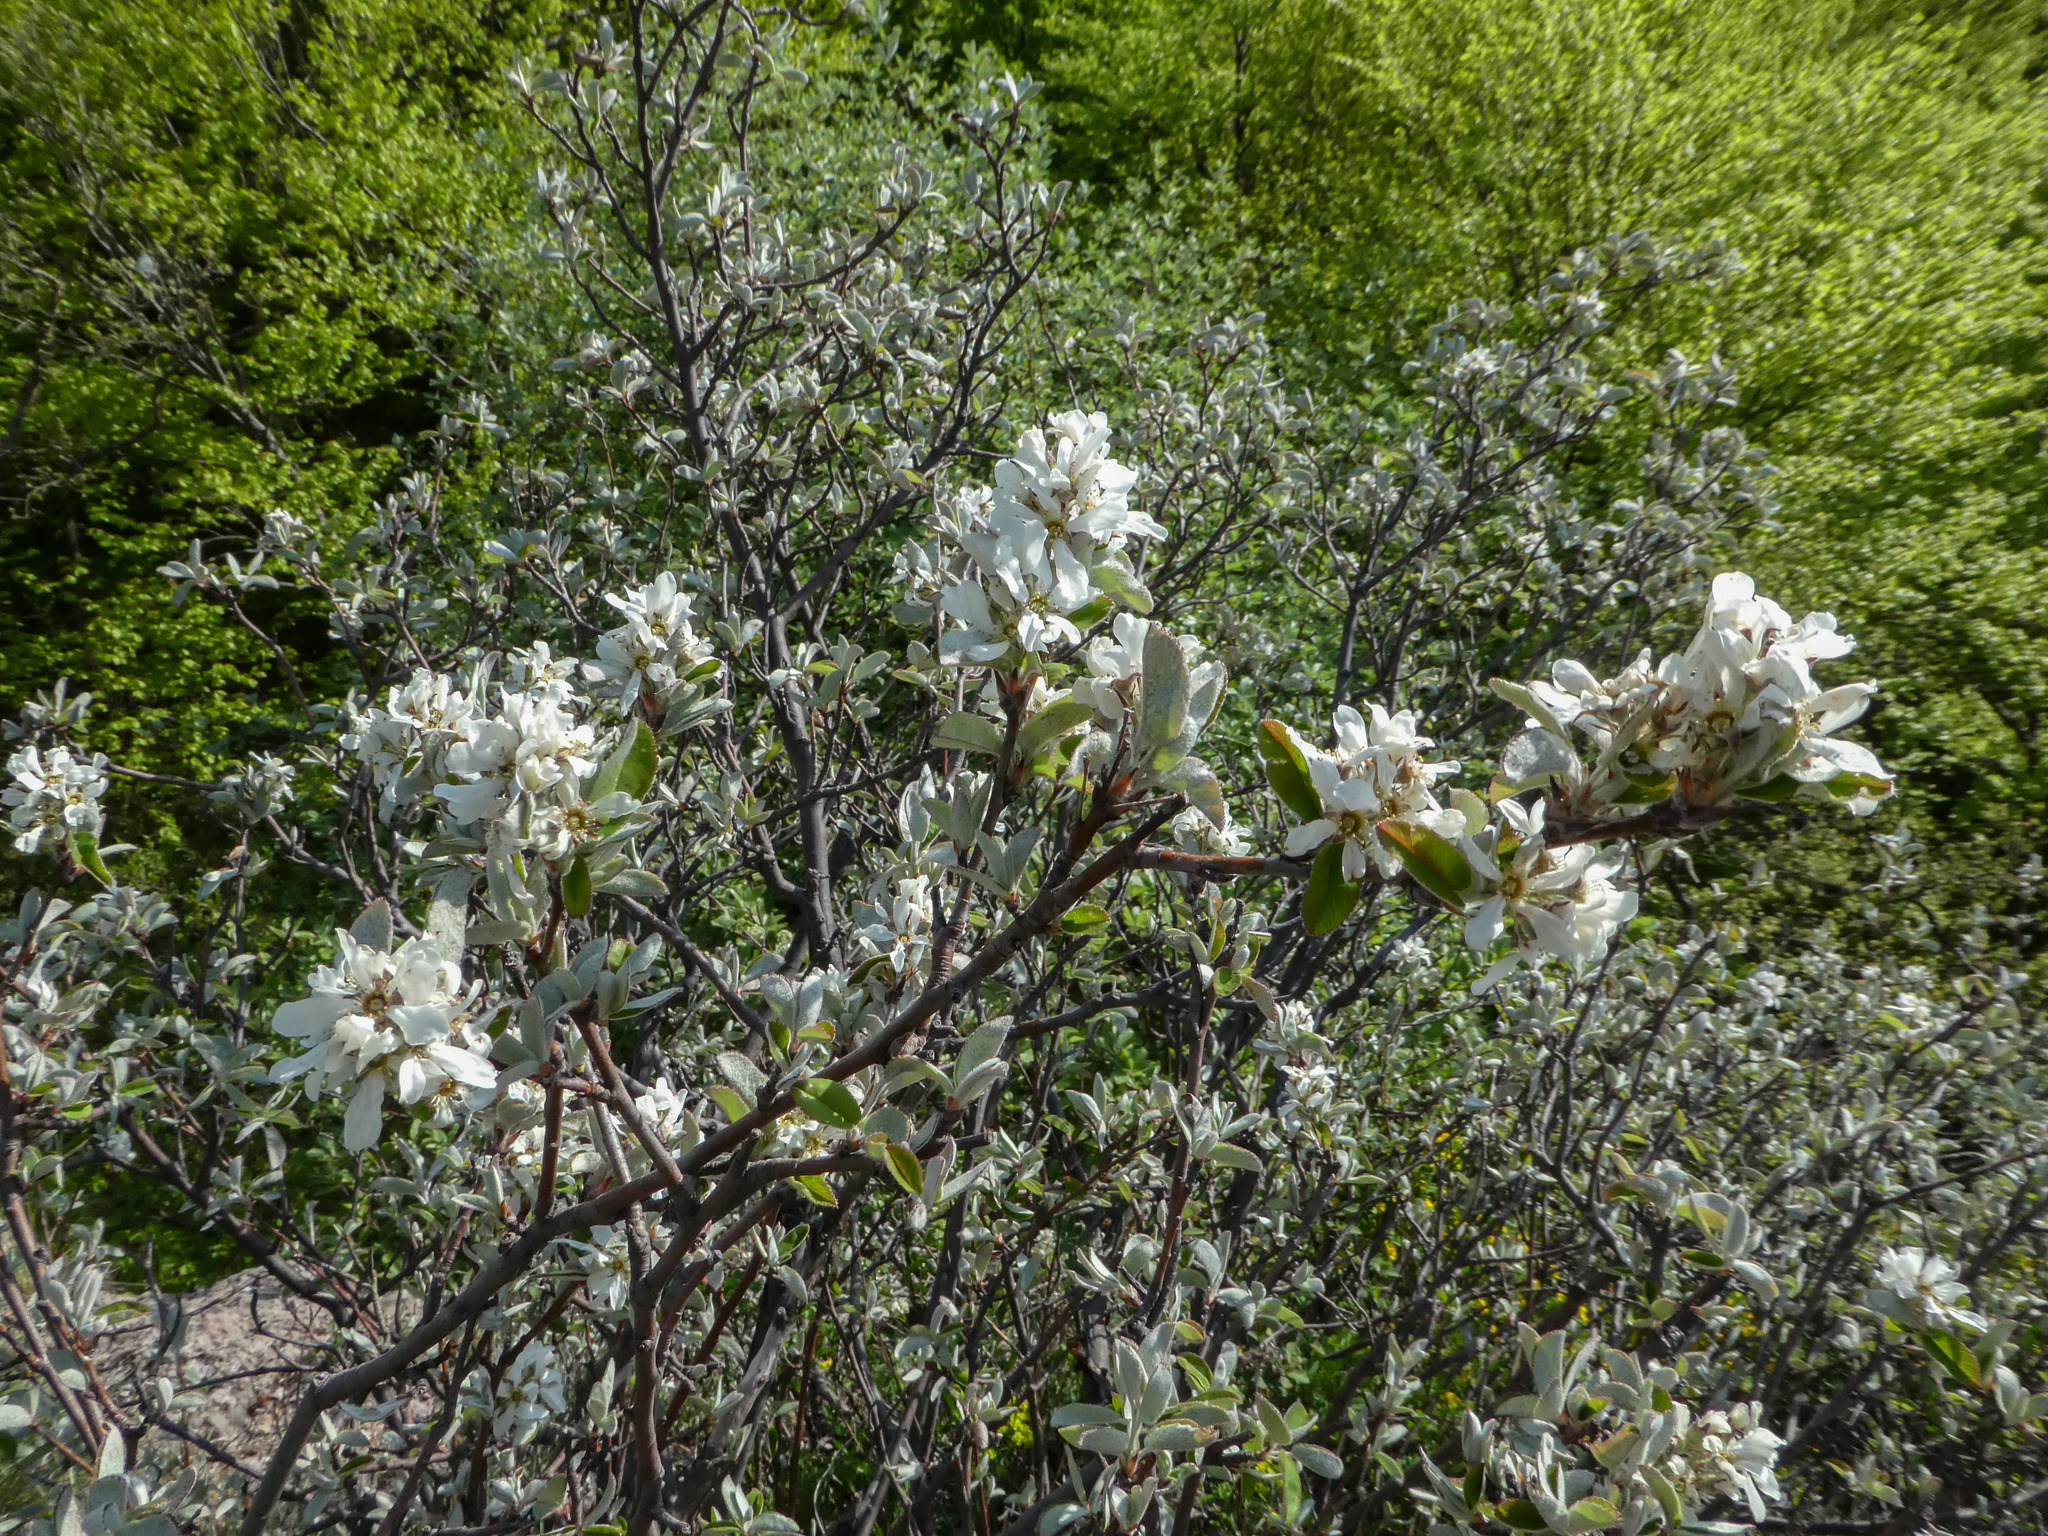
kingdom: Plantae
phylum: Tracheophyta
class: Magnoliopsida
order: Rosales
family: Rosaceae
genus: Amelanchier
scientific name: Amelanchier ovalis
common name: Serviceberry
